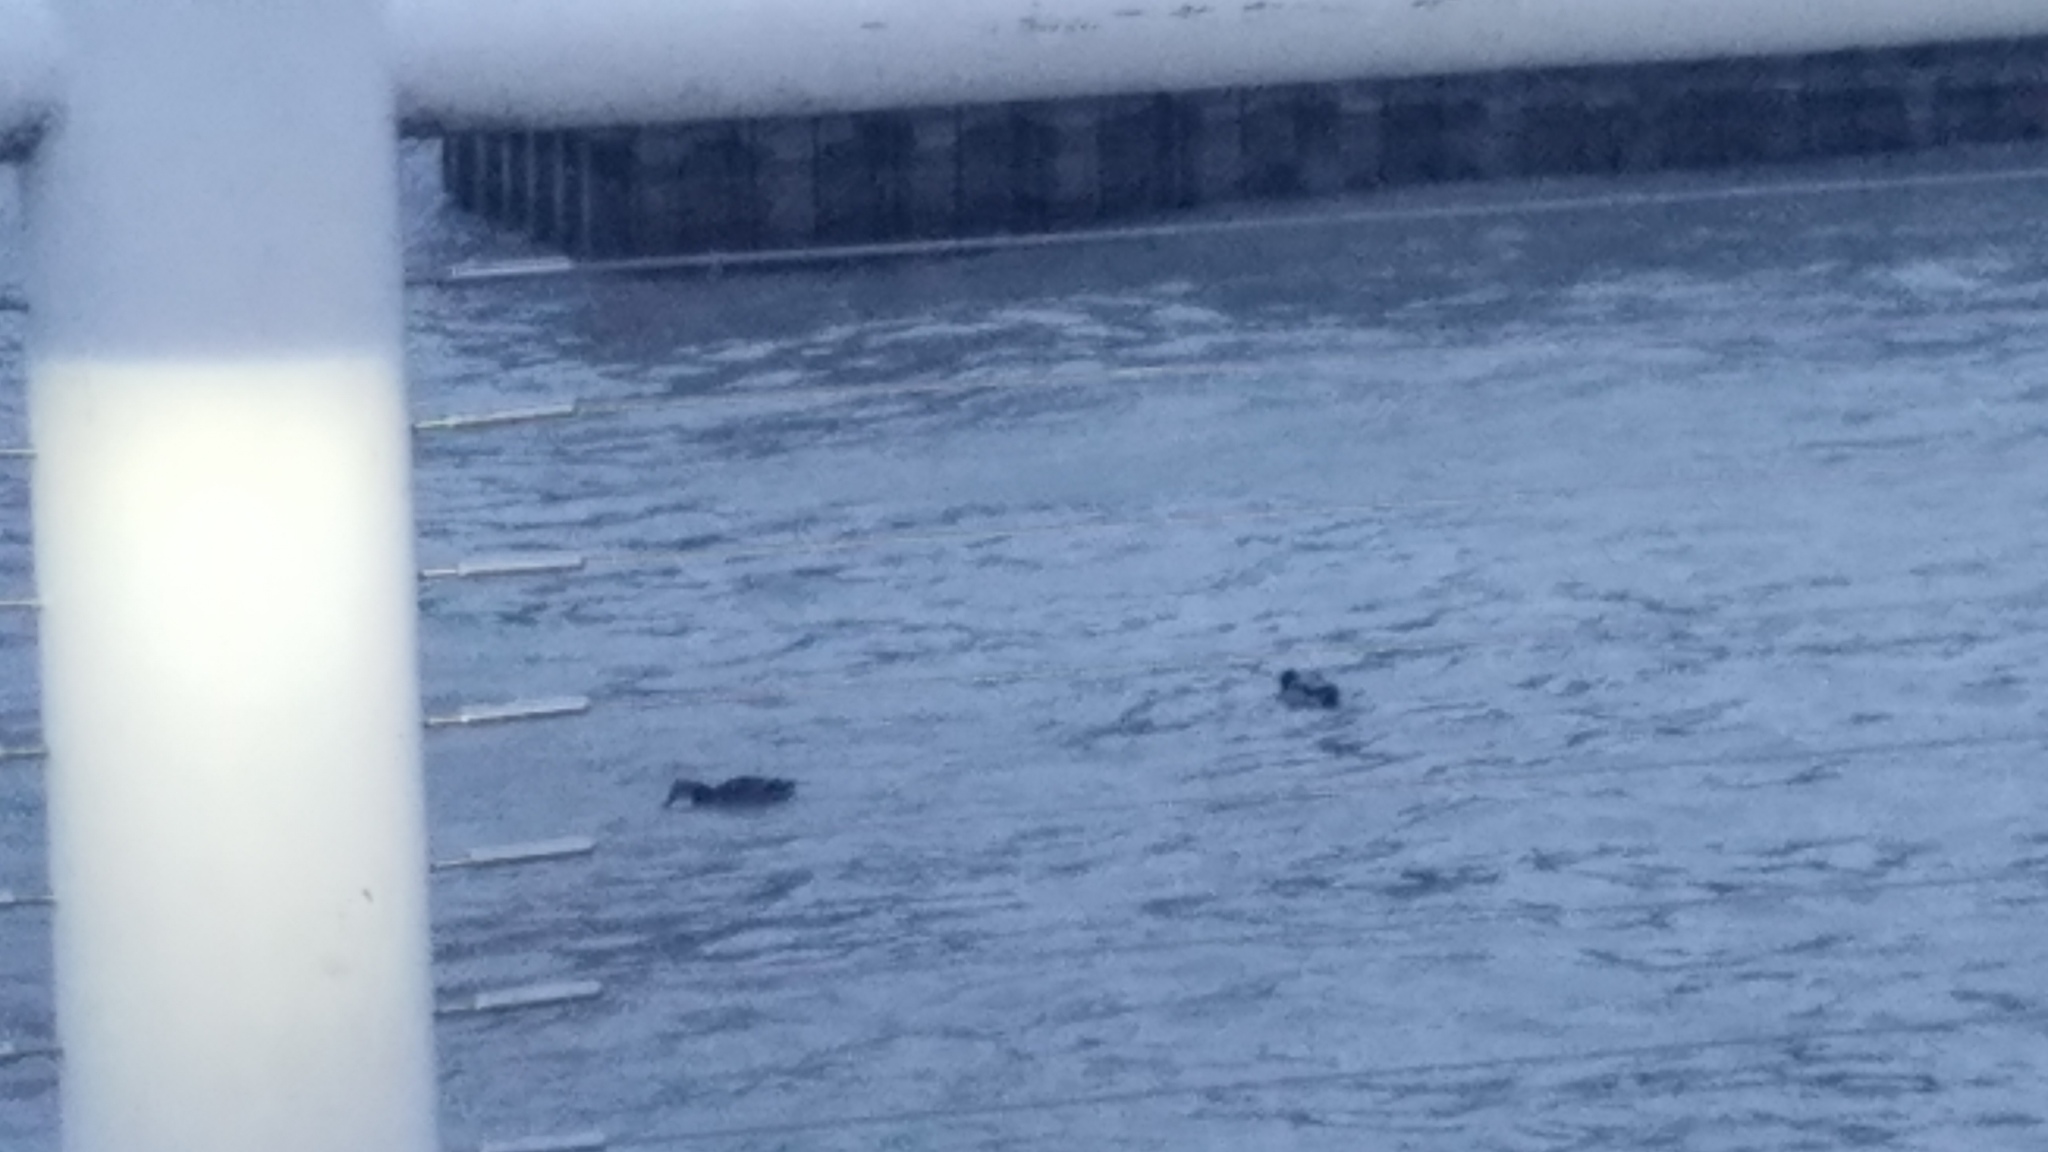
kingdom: Animalia
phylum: Chordata
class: Aves
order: Anseriformes
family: Anatidae
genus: Anas
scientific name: Anas platyrhynchos
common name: Mallard
